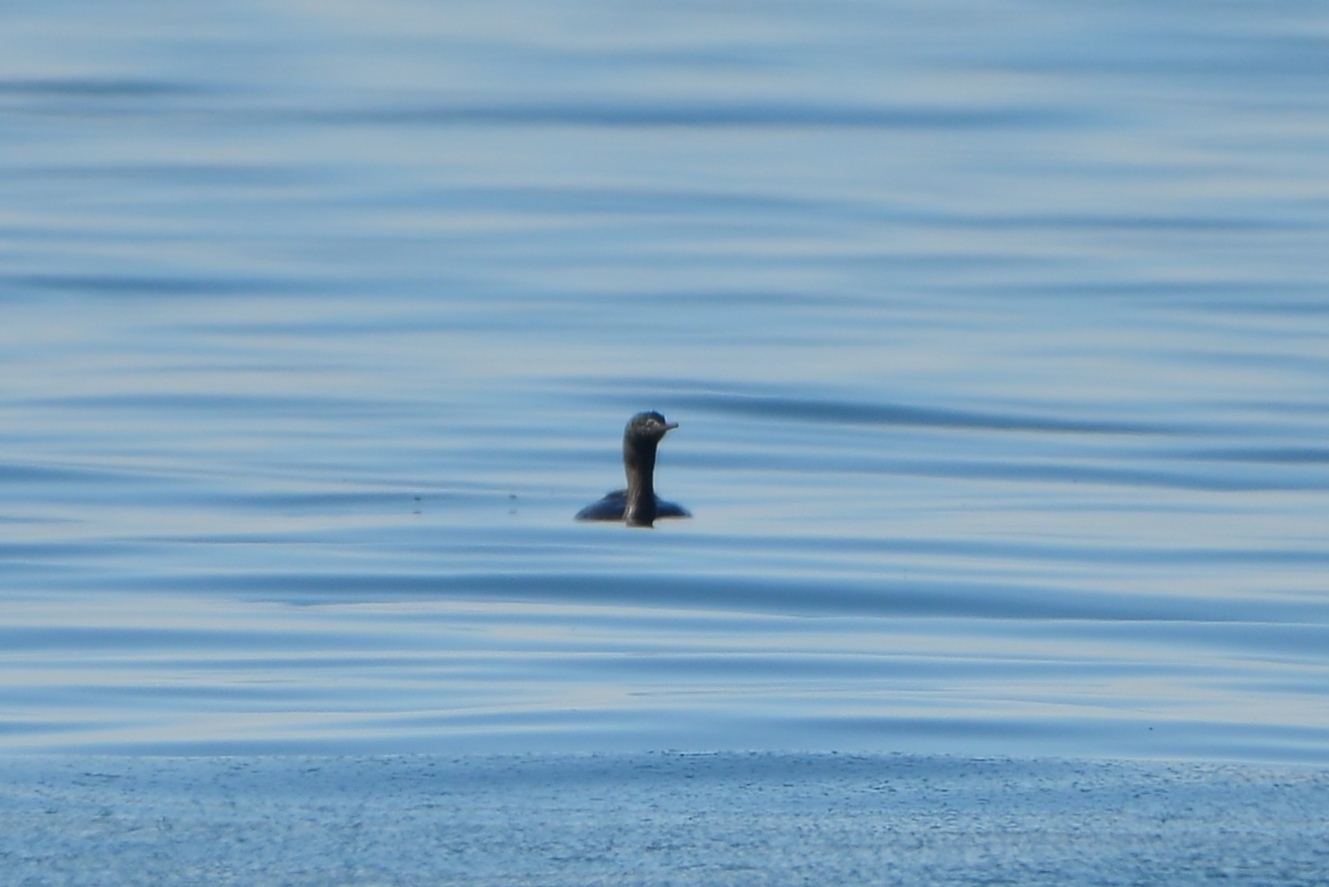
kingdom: Animalia
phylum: Chordata
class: Aves
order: Suliformes
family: Phalacrocoracidae
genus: Phalacrocorax
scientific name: Phalacrocorax pelagicus
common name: Pelagic cormorant
